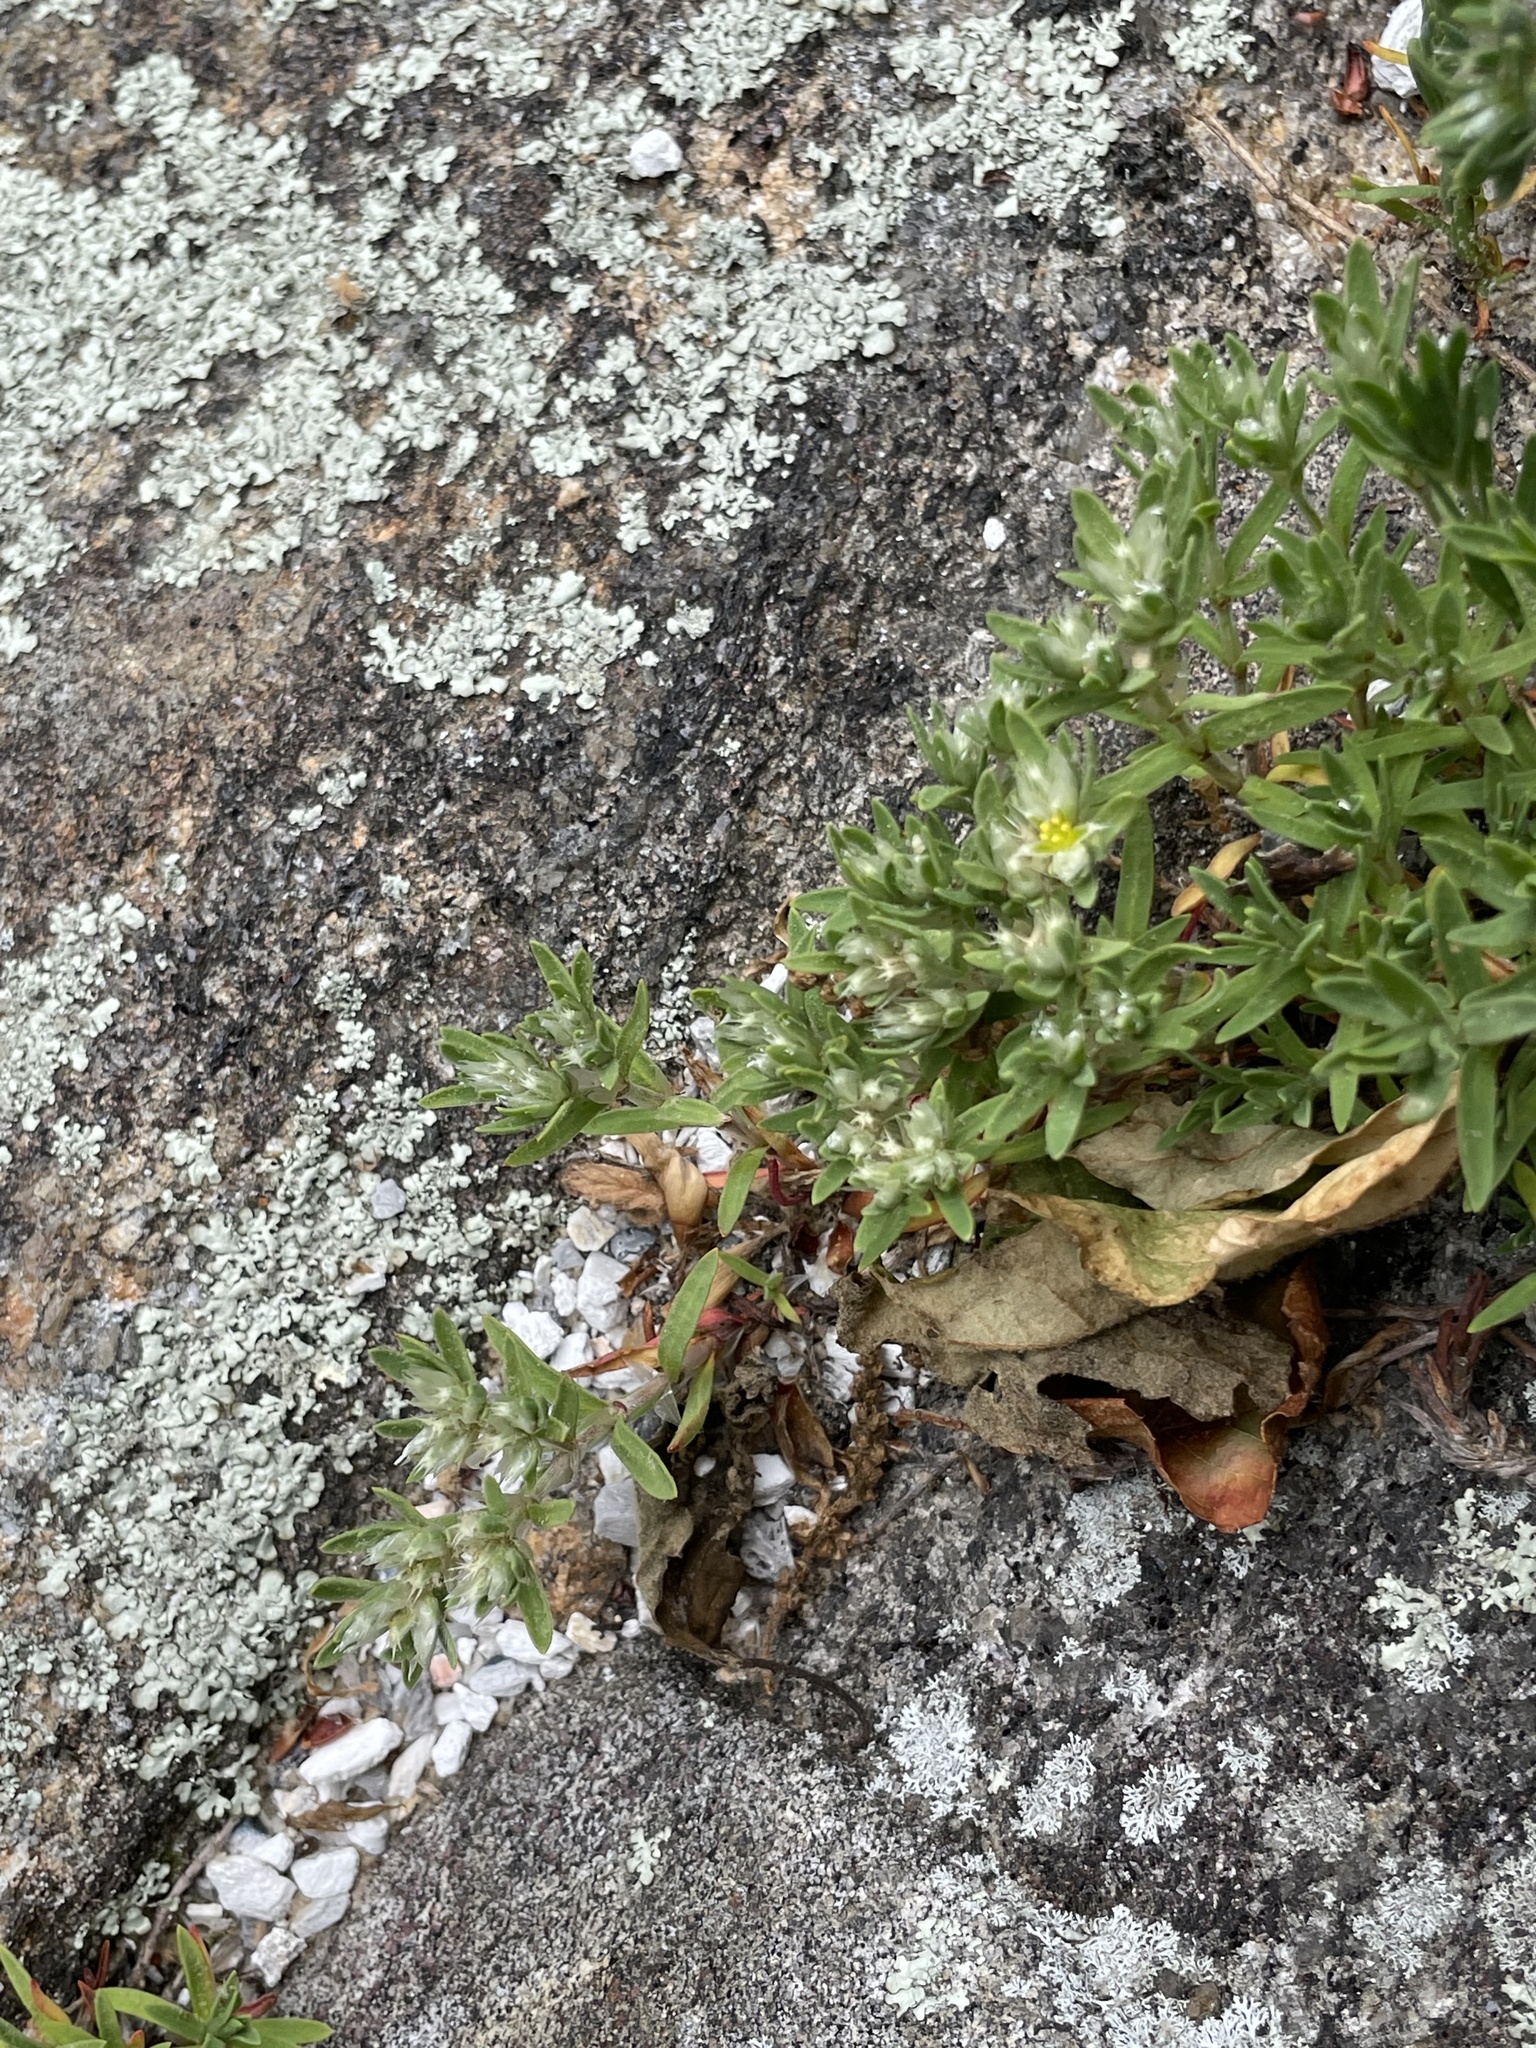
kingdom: Plantae
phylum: Tracheophyta
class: Magnoliopsida
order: Caryophyllales
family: Caryophyllaceae
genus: Paronychia
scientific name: Paronychia argyrocoma
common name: Silverling
